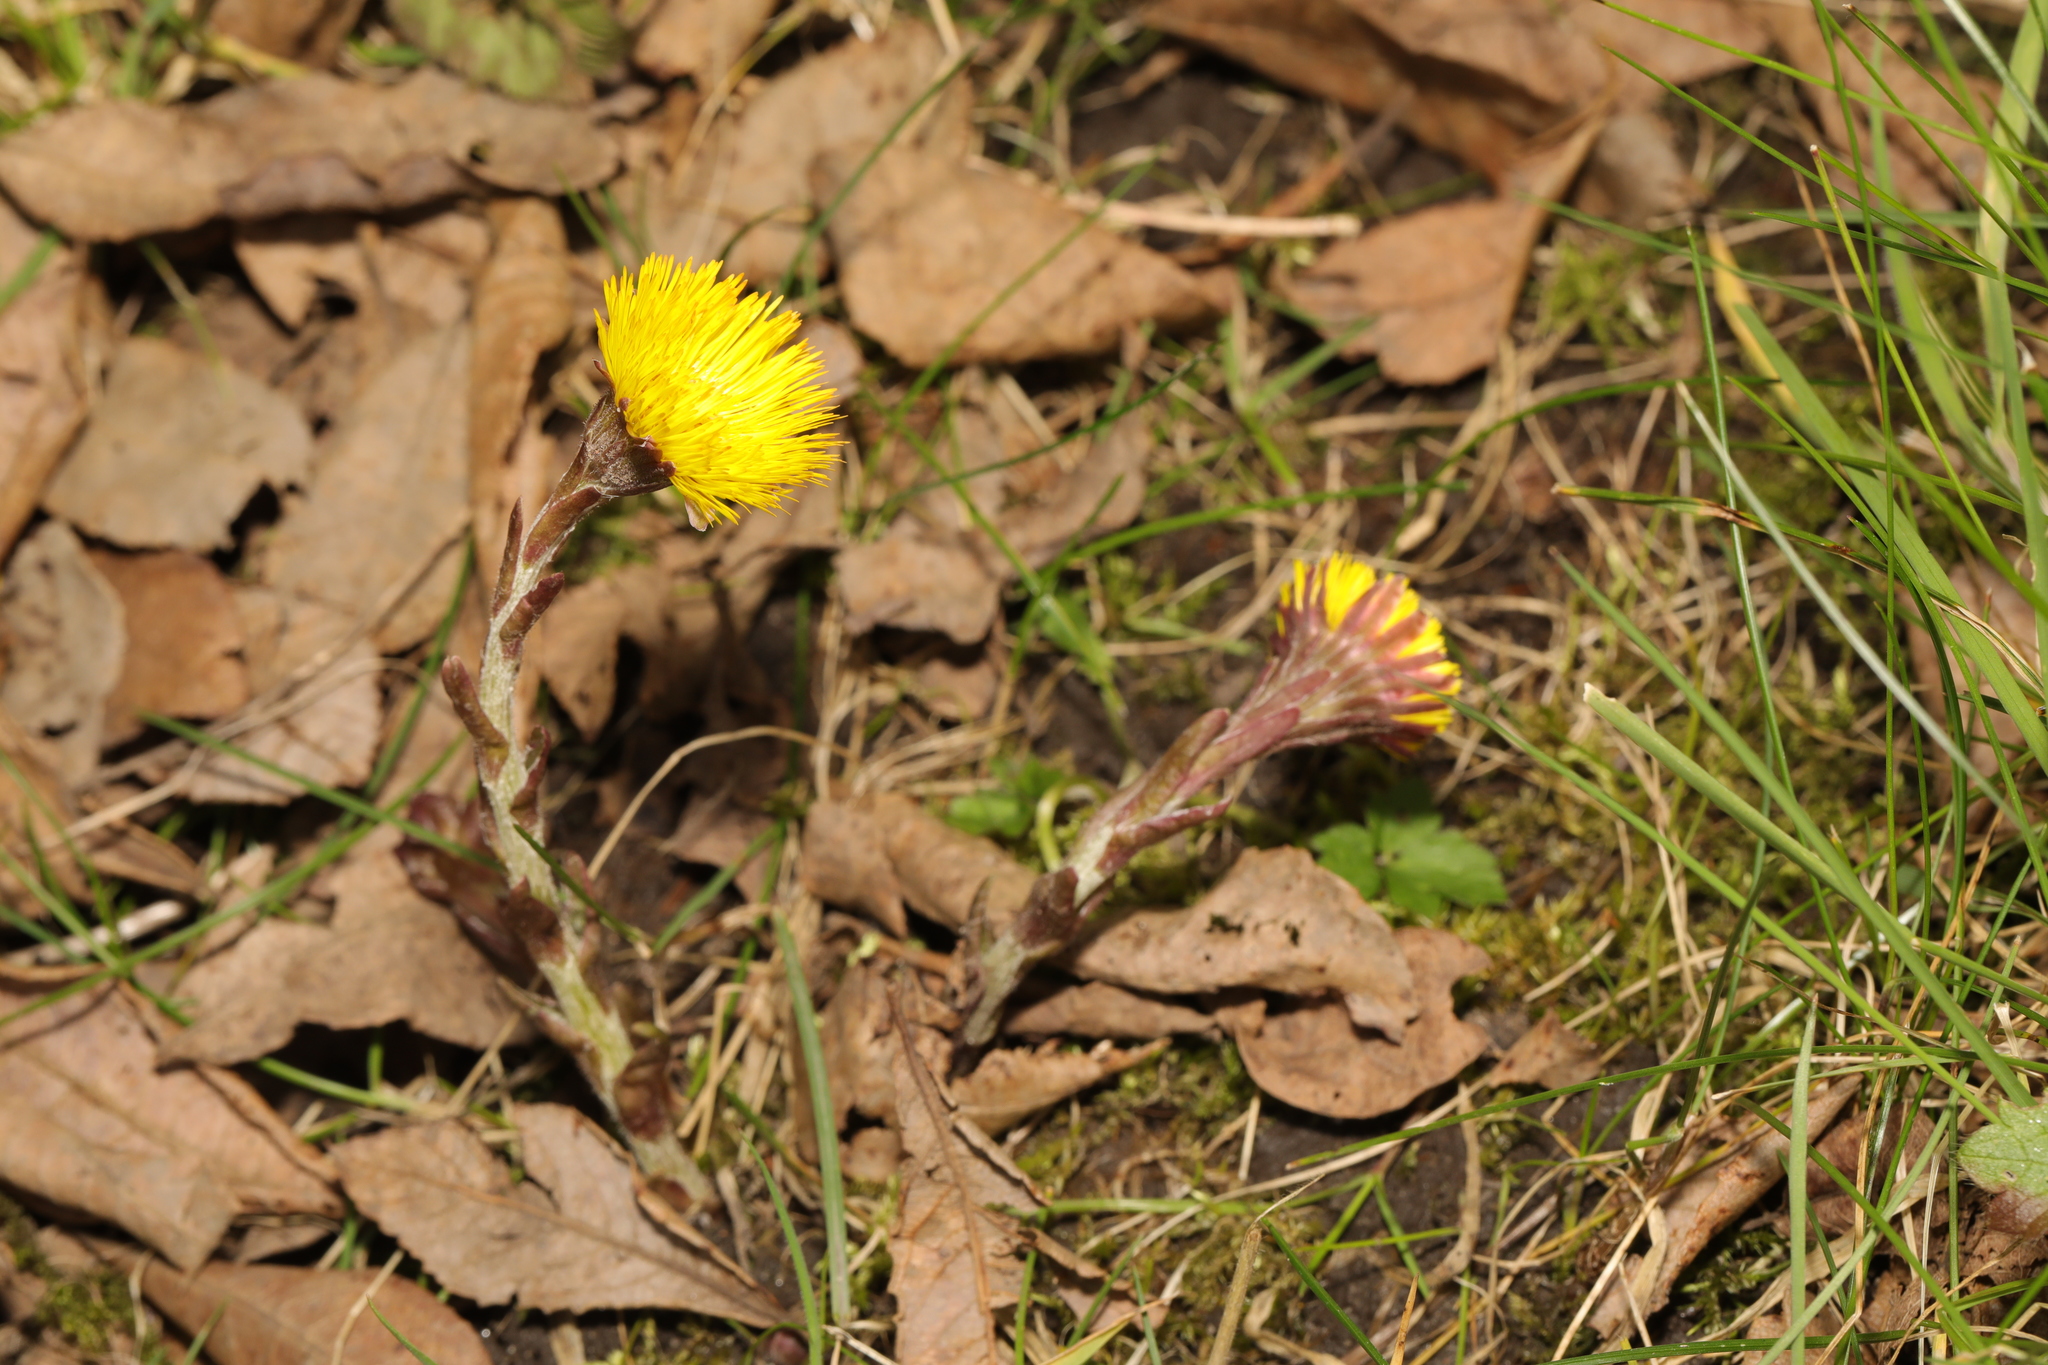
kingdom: Plantae
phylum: Tracheophyta
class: Magnoliopsida
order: Asterales
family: Asteraceae
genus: Tussilago
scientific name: Tussilago farfara
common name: Coltsfoot
